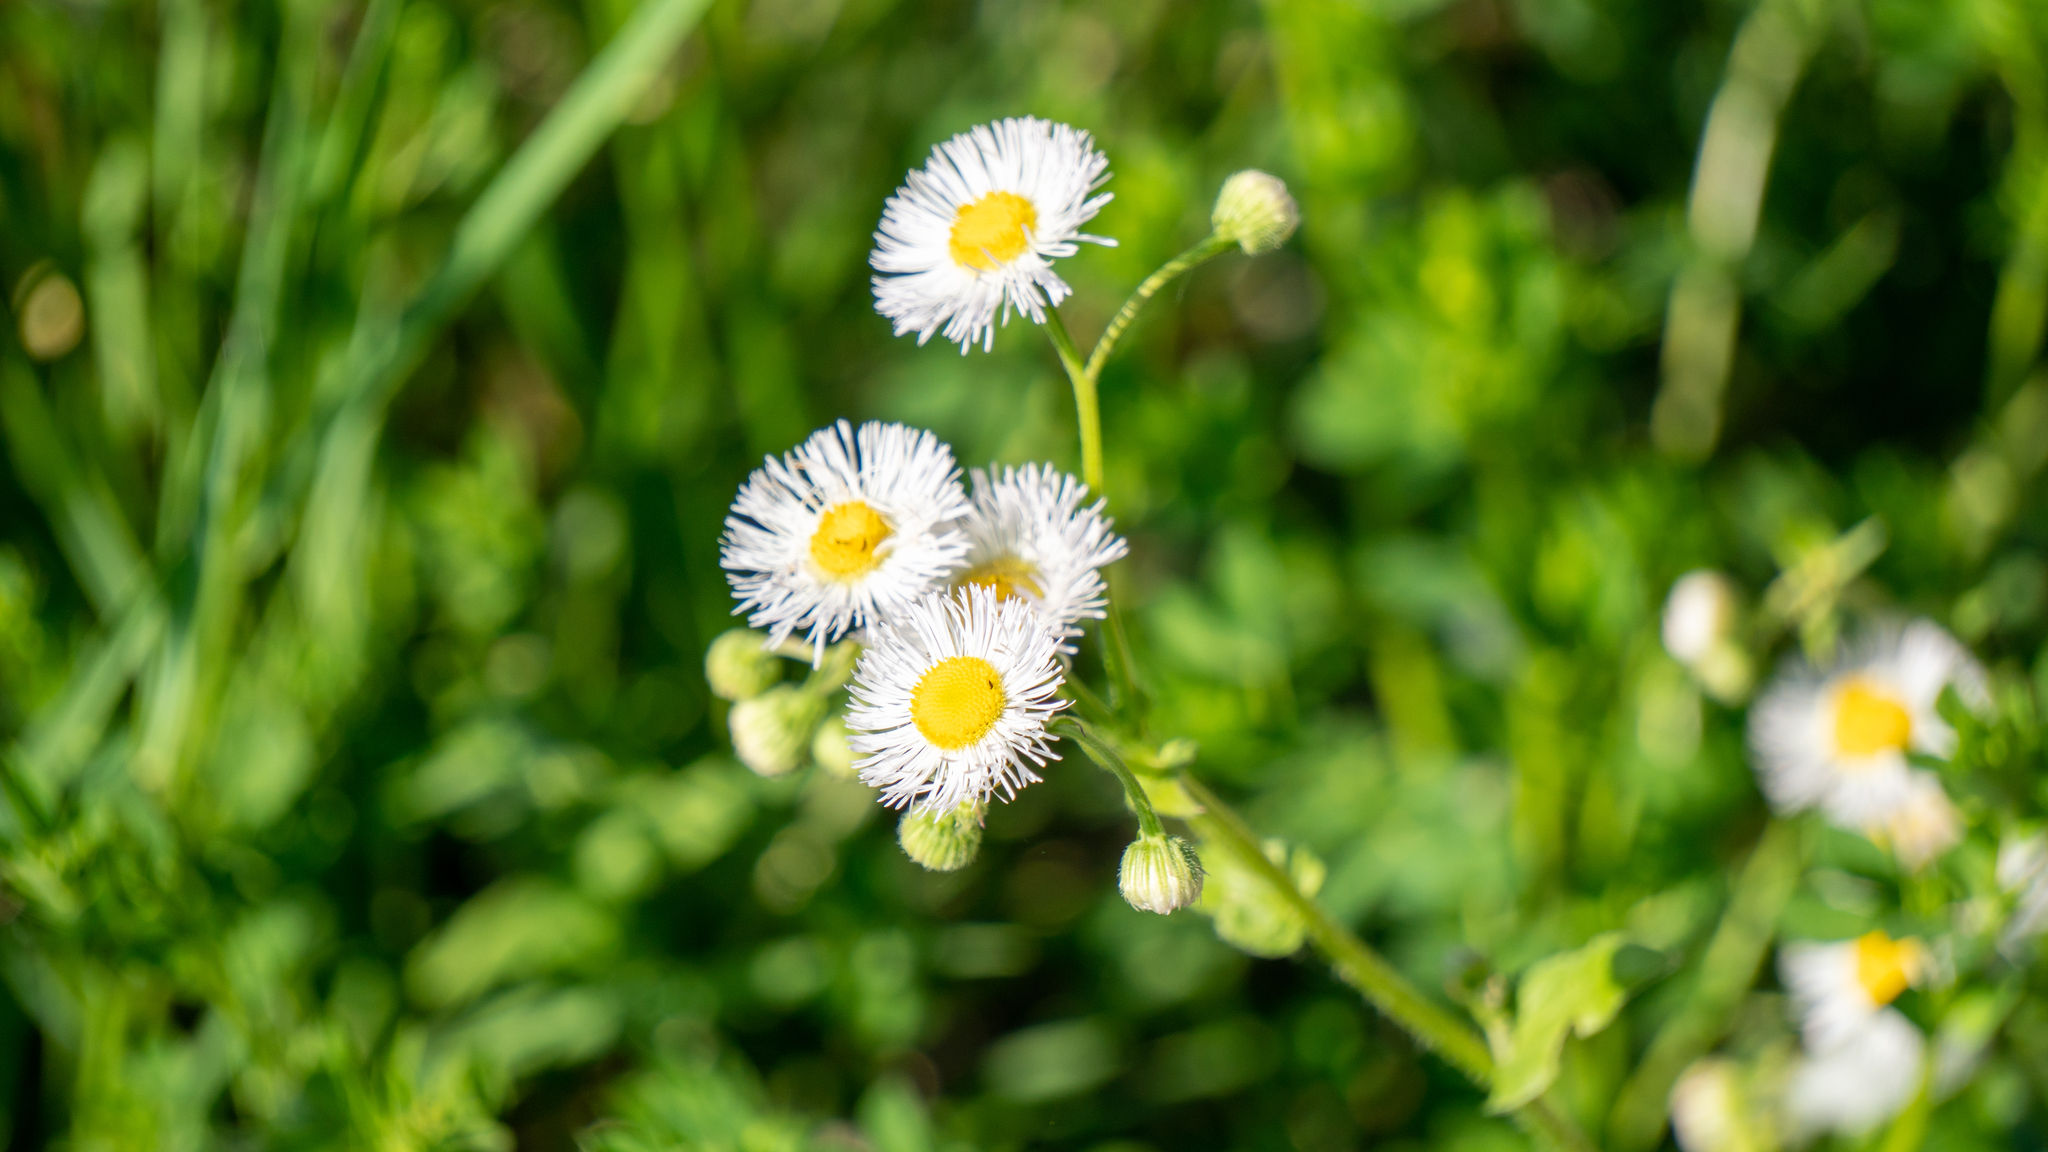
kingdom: Plantae
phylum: Tracheophyta
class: Magnoliopsida
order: Asterales
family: Asteraceae
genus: Erigeron
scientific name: Erigeron philadelphicus
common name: Robin's-plantain
